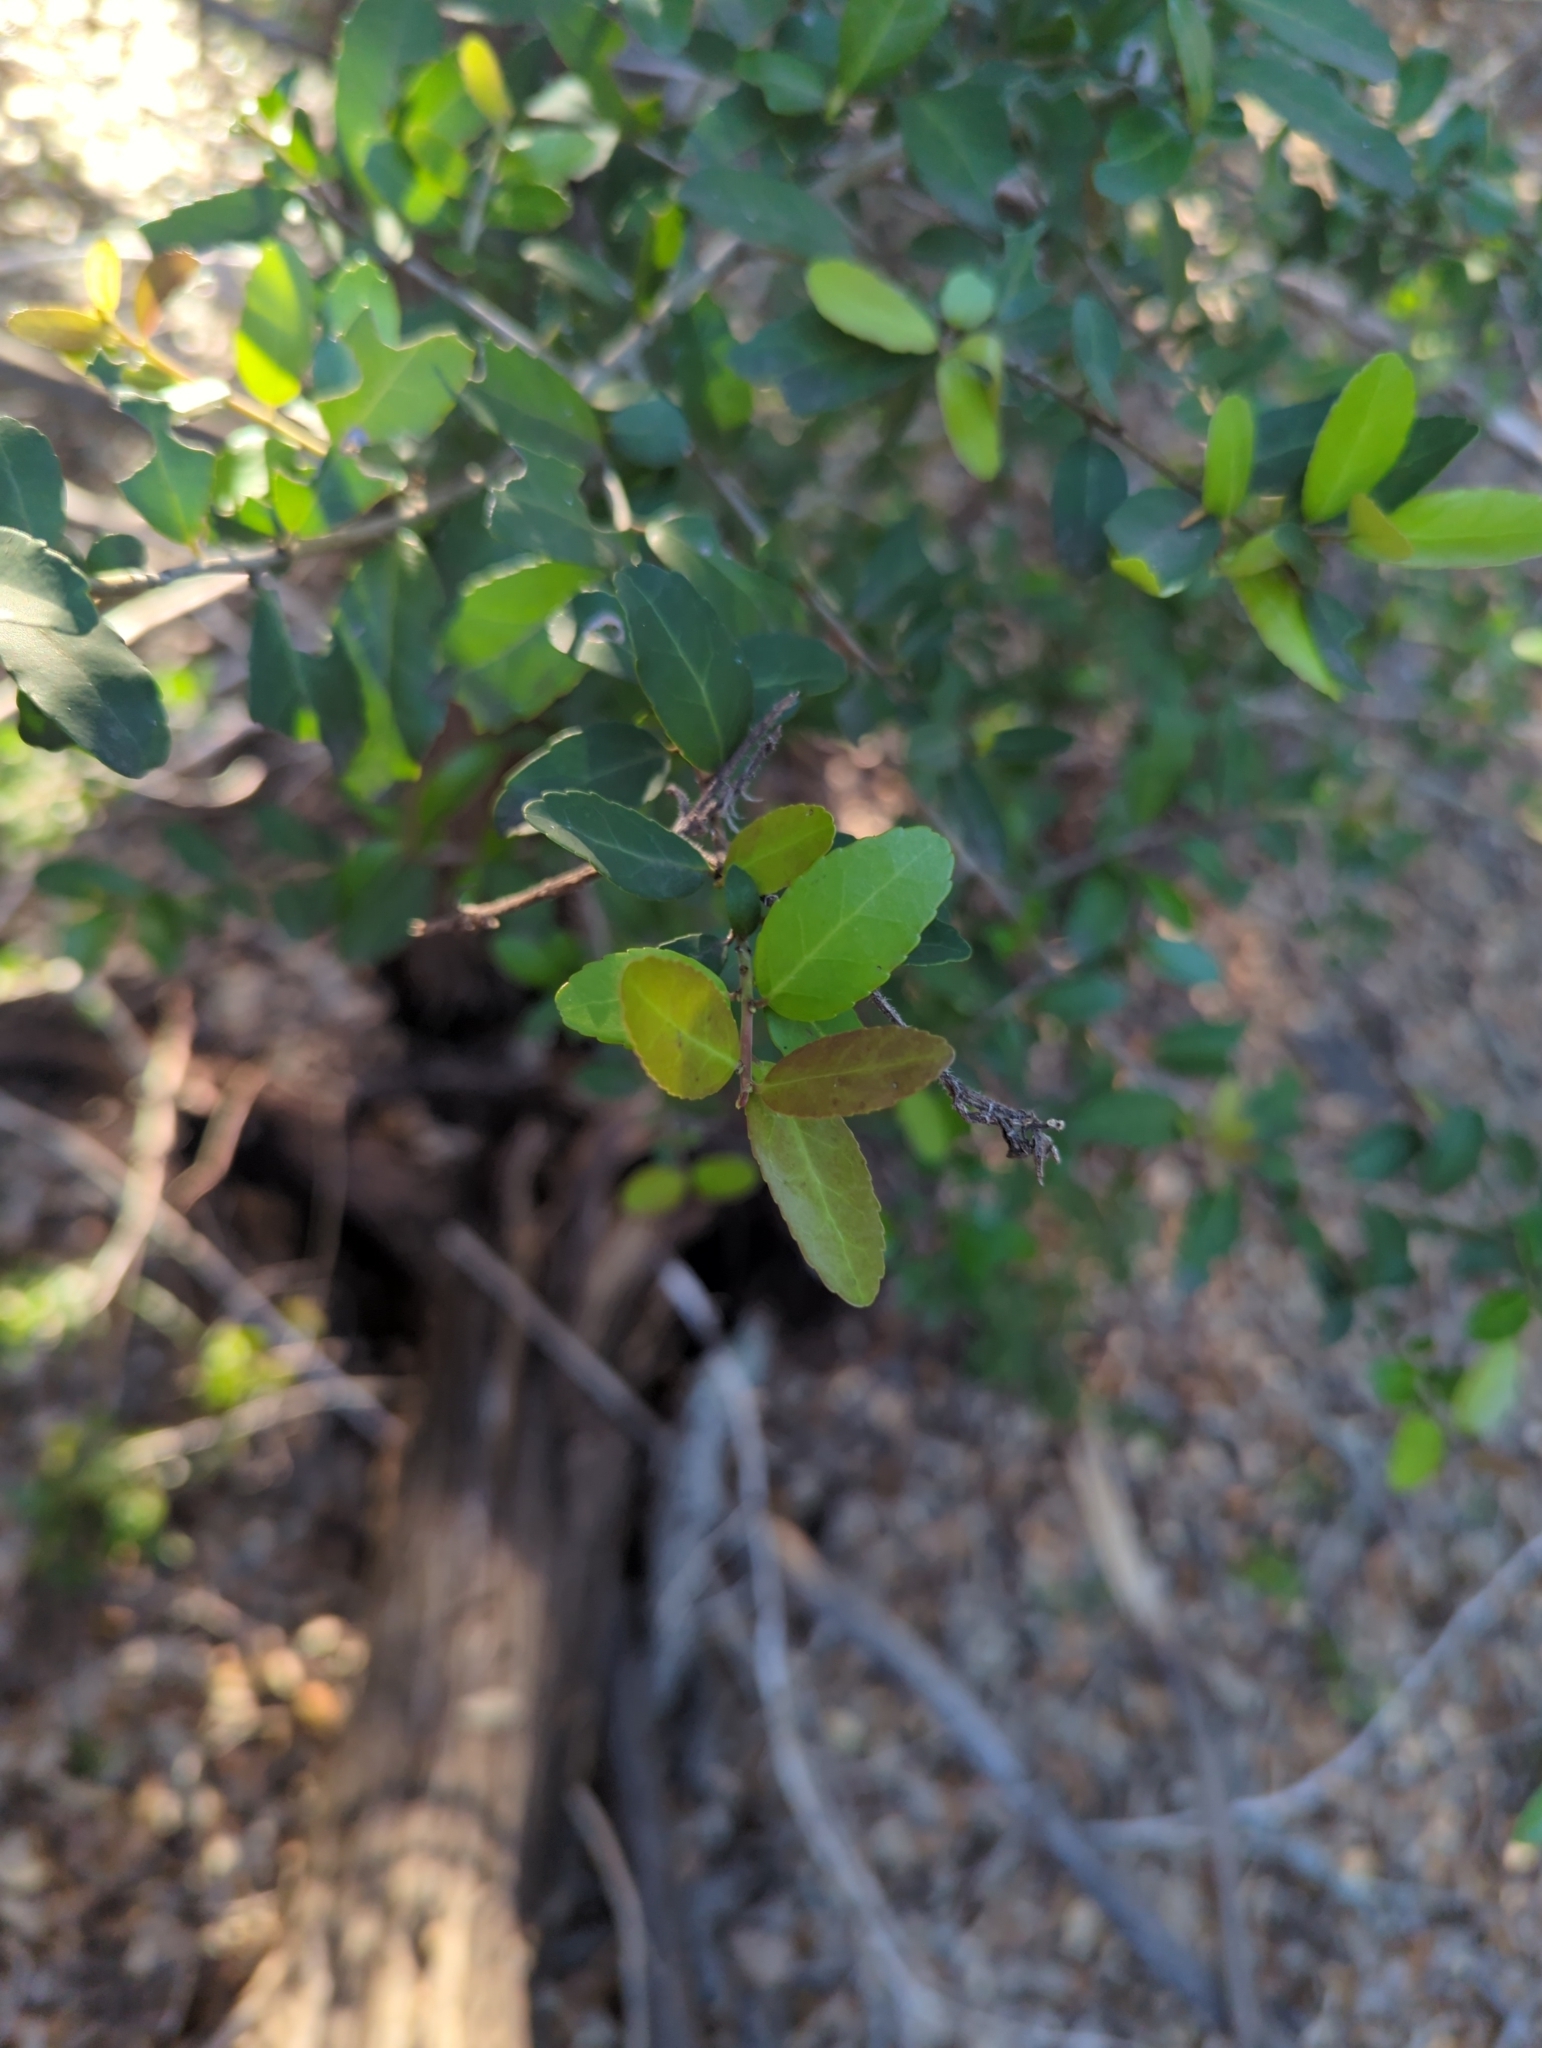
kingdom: Plantae
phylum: Tracheophyta
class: Magnoliopsida
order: Aquifoliales
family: Aquifoliaceae
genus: Ilex
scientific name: Ilex vomitoria
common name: Yaupon holly
